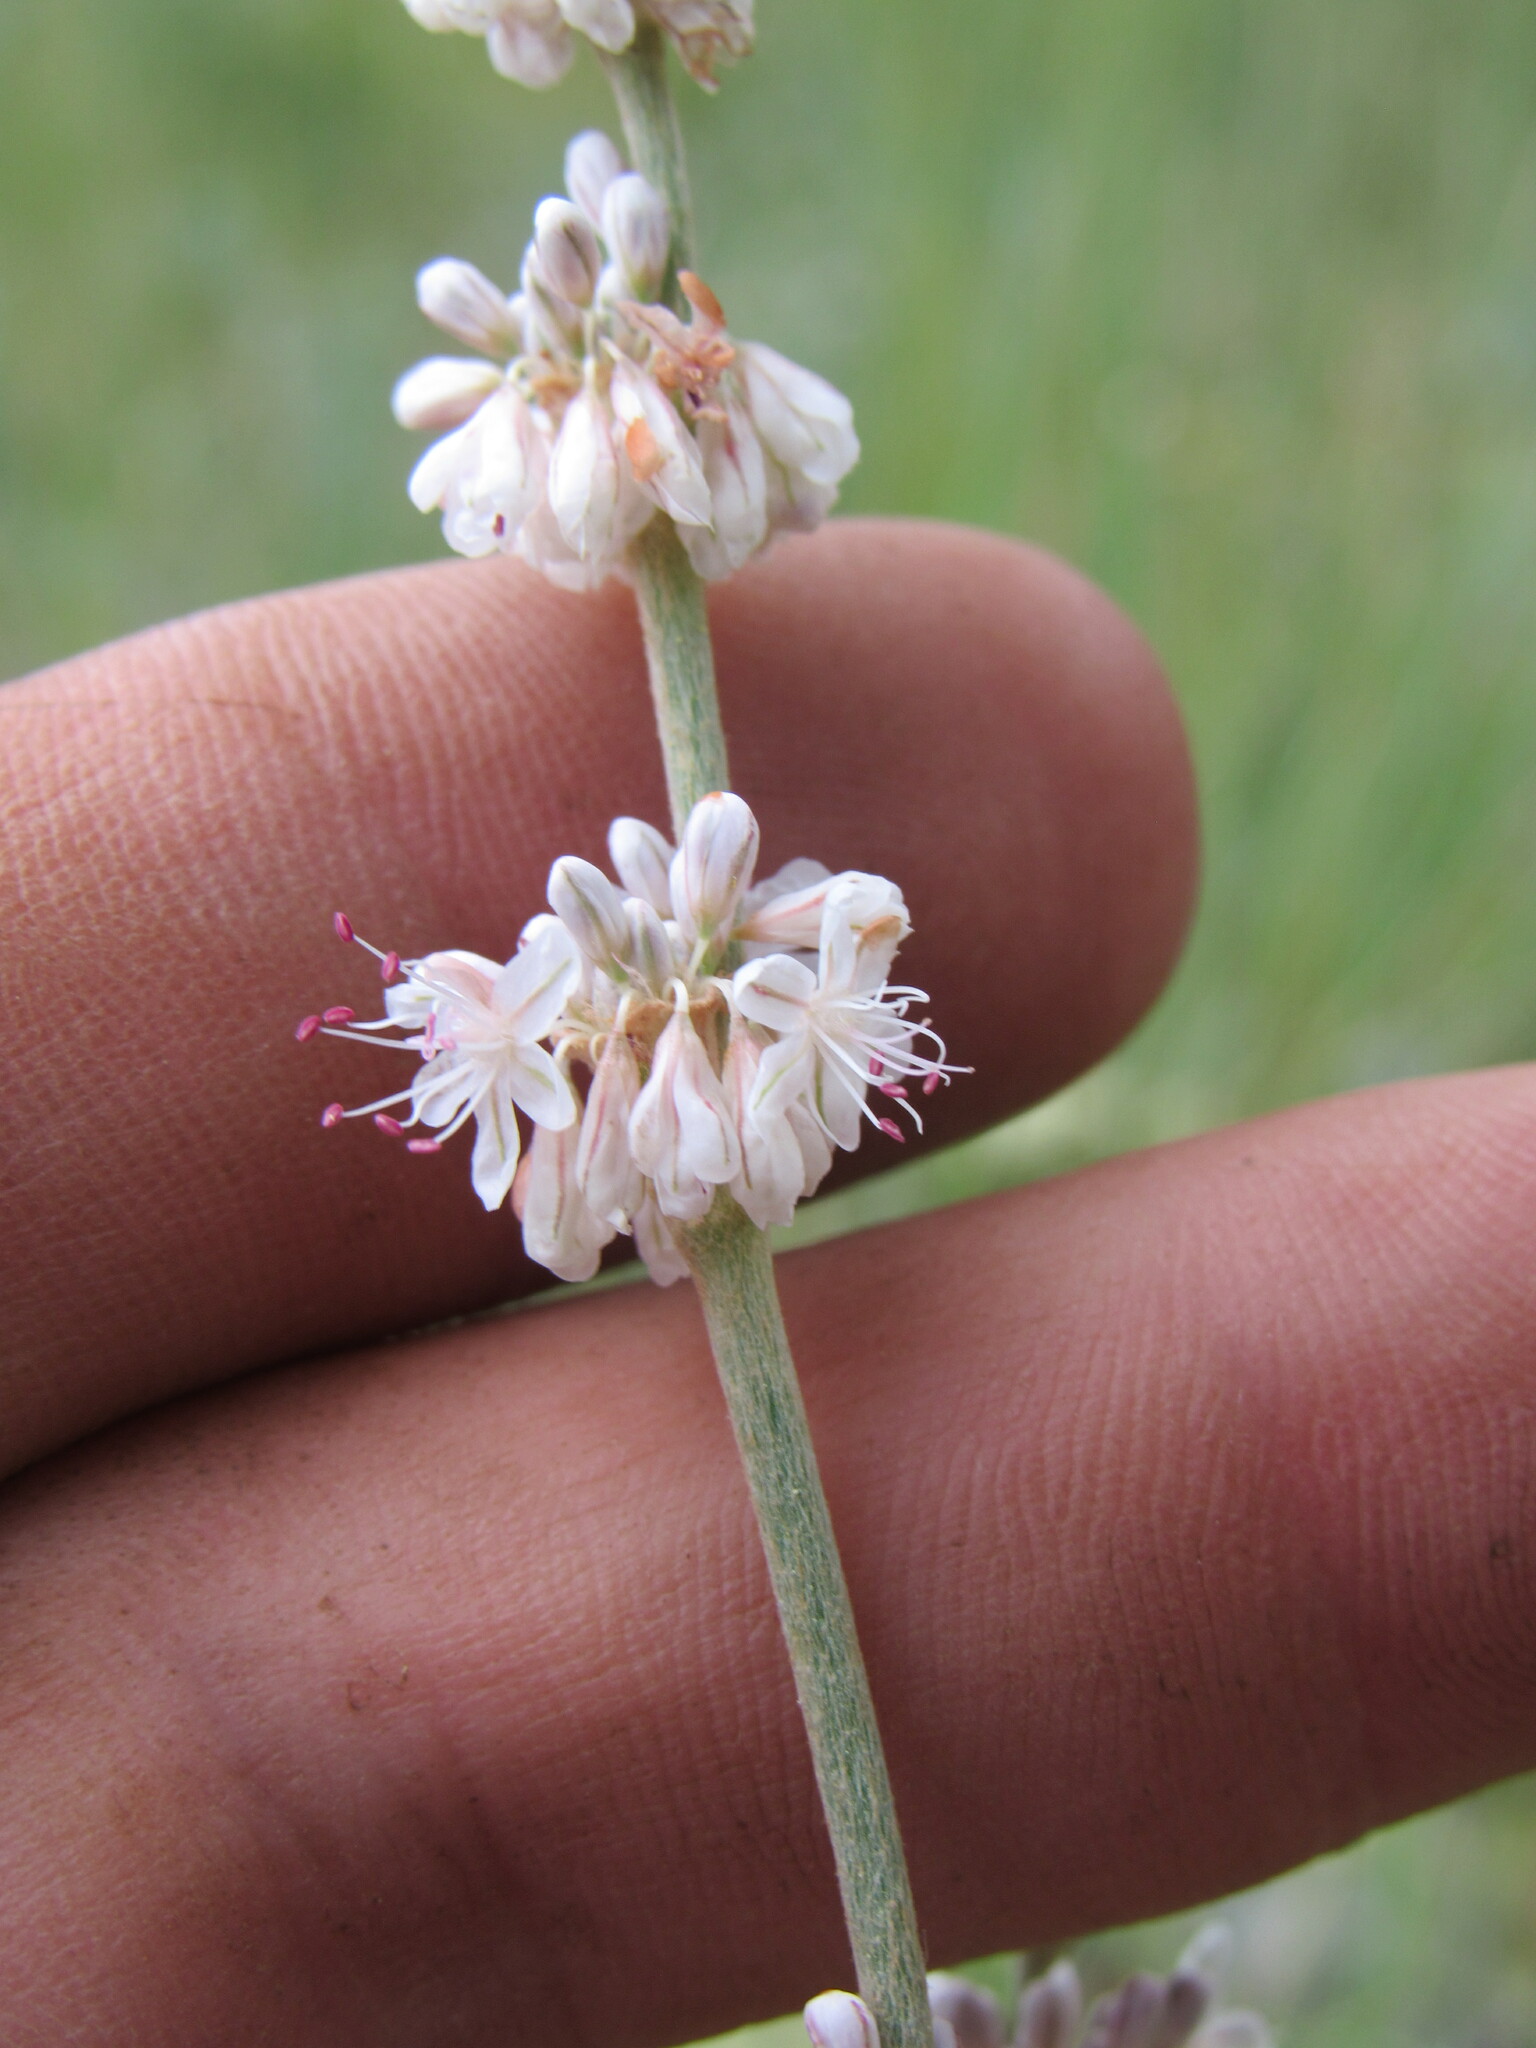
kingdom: Plantae
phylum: Tracheophyta
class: Magnoliopsida
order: Caryophyllales
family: Polygonaceae
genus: Eriogonum
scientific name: Eriogonum racemosum
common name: Redroot wild buckwheat
